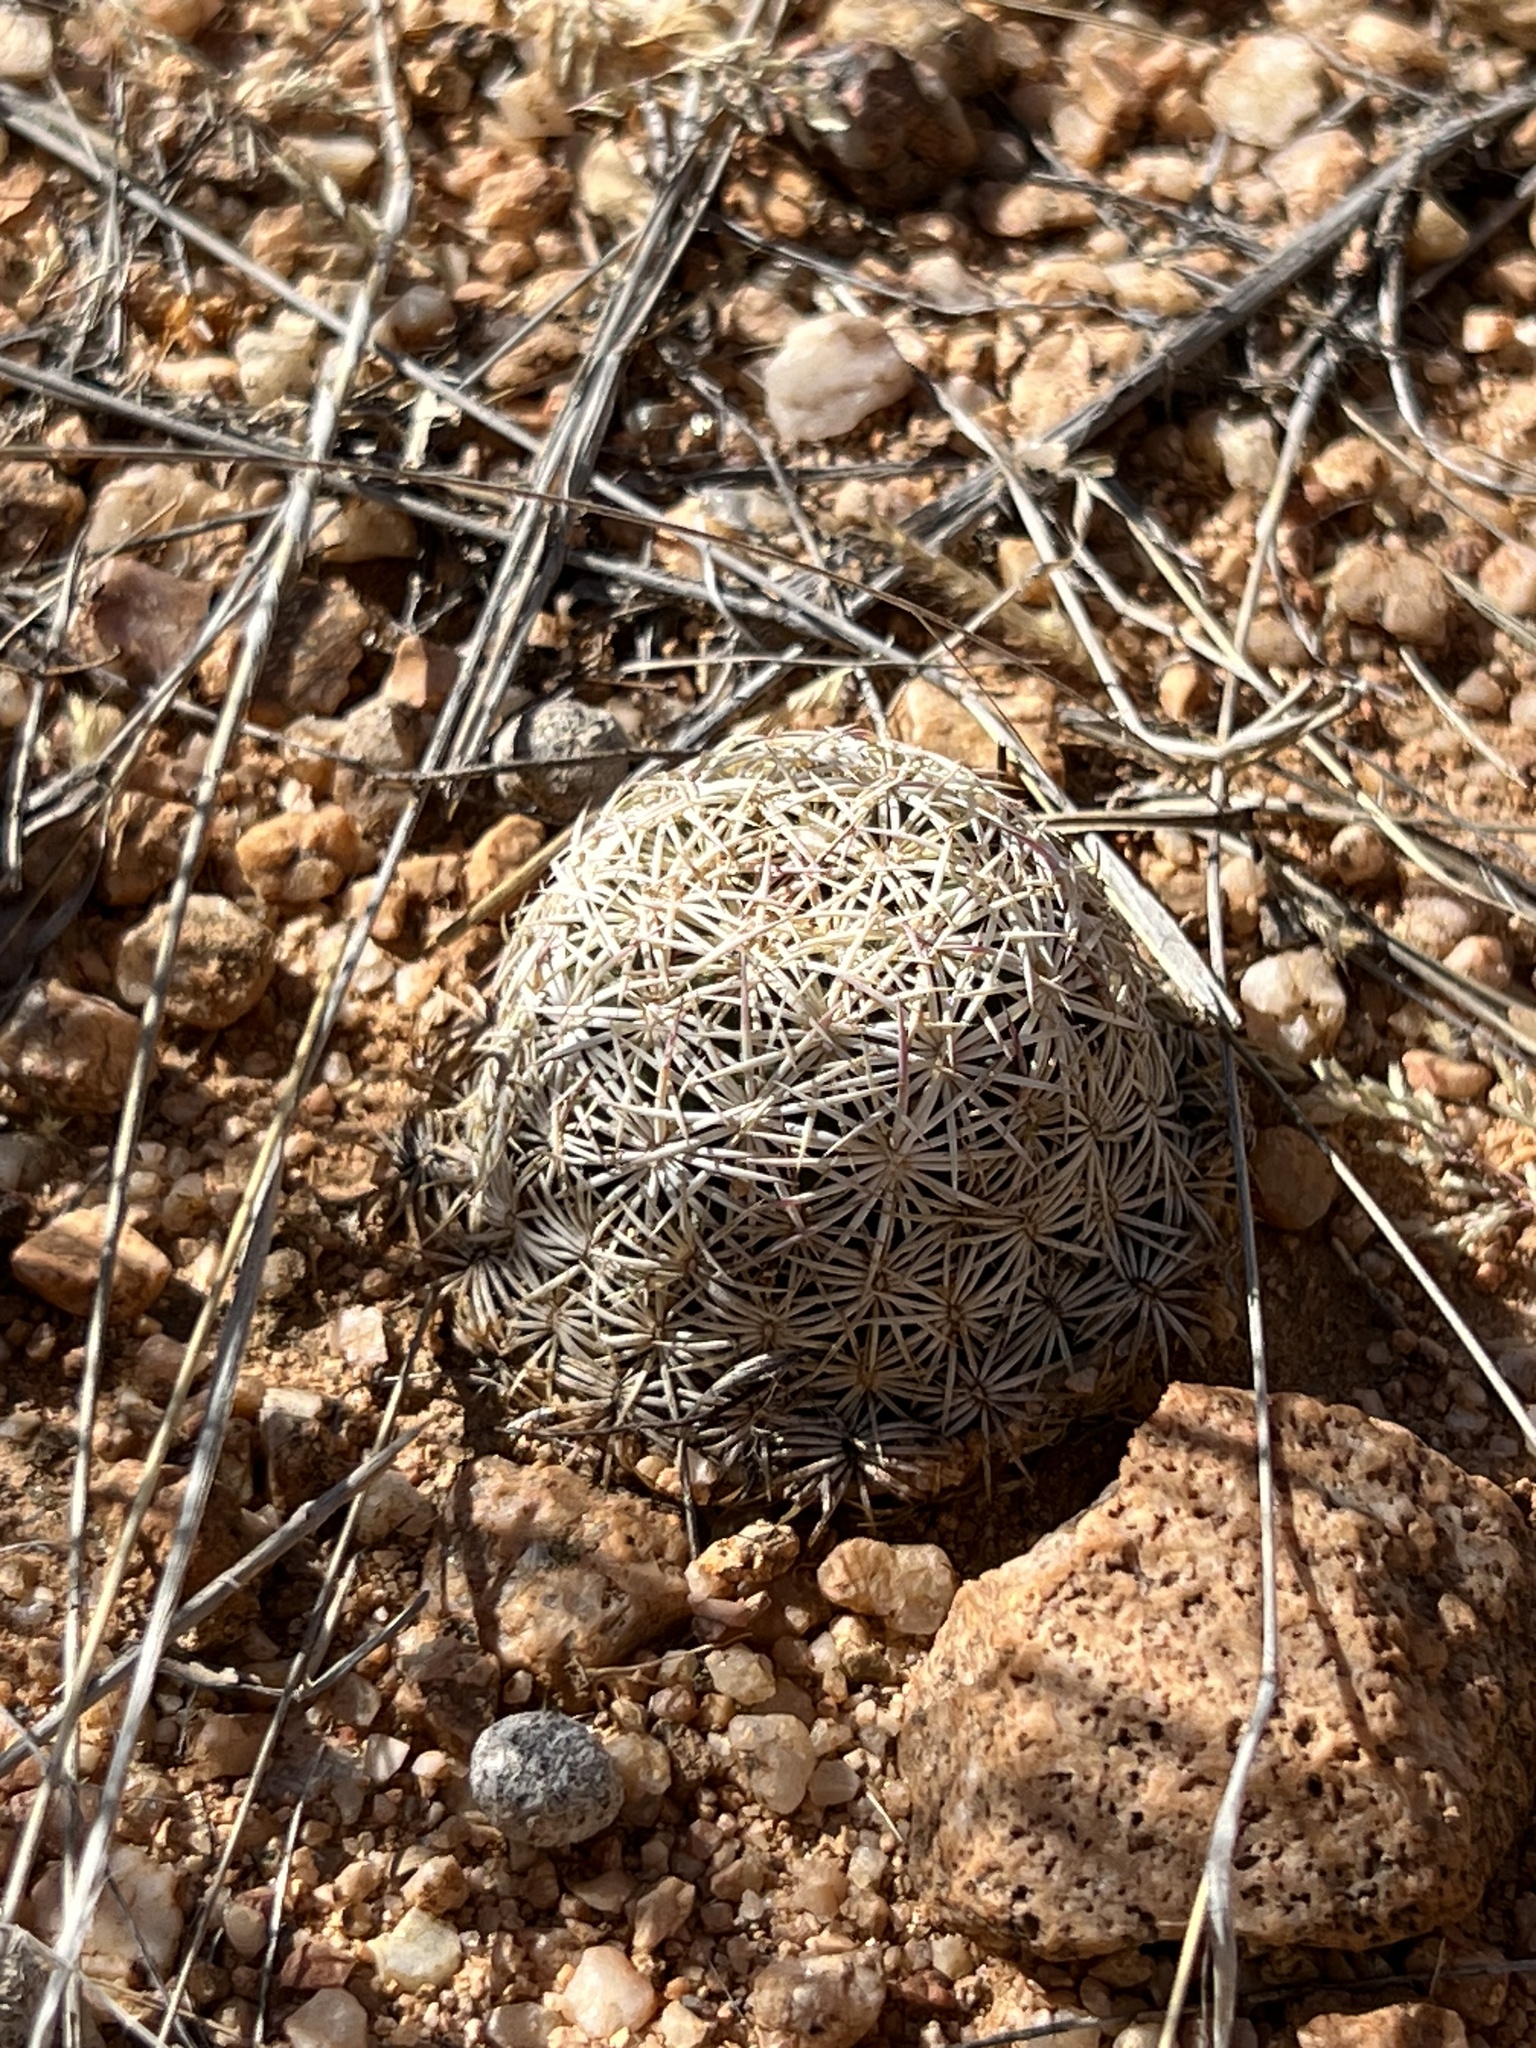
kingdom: Plantae
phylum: Tracheophyta
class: Magnoliopsida
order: Caryophyllales
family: Cactaceae
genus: Sclerocactus
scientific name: Sclerocactus johnsonii
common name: Eight-spine fishhook cactus
